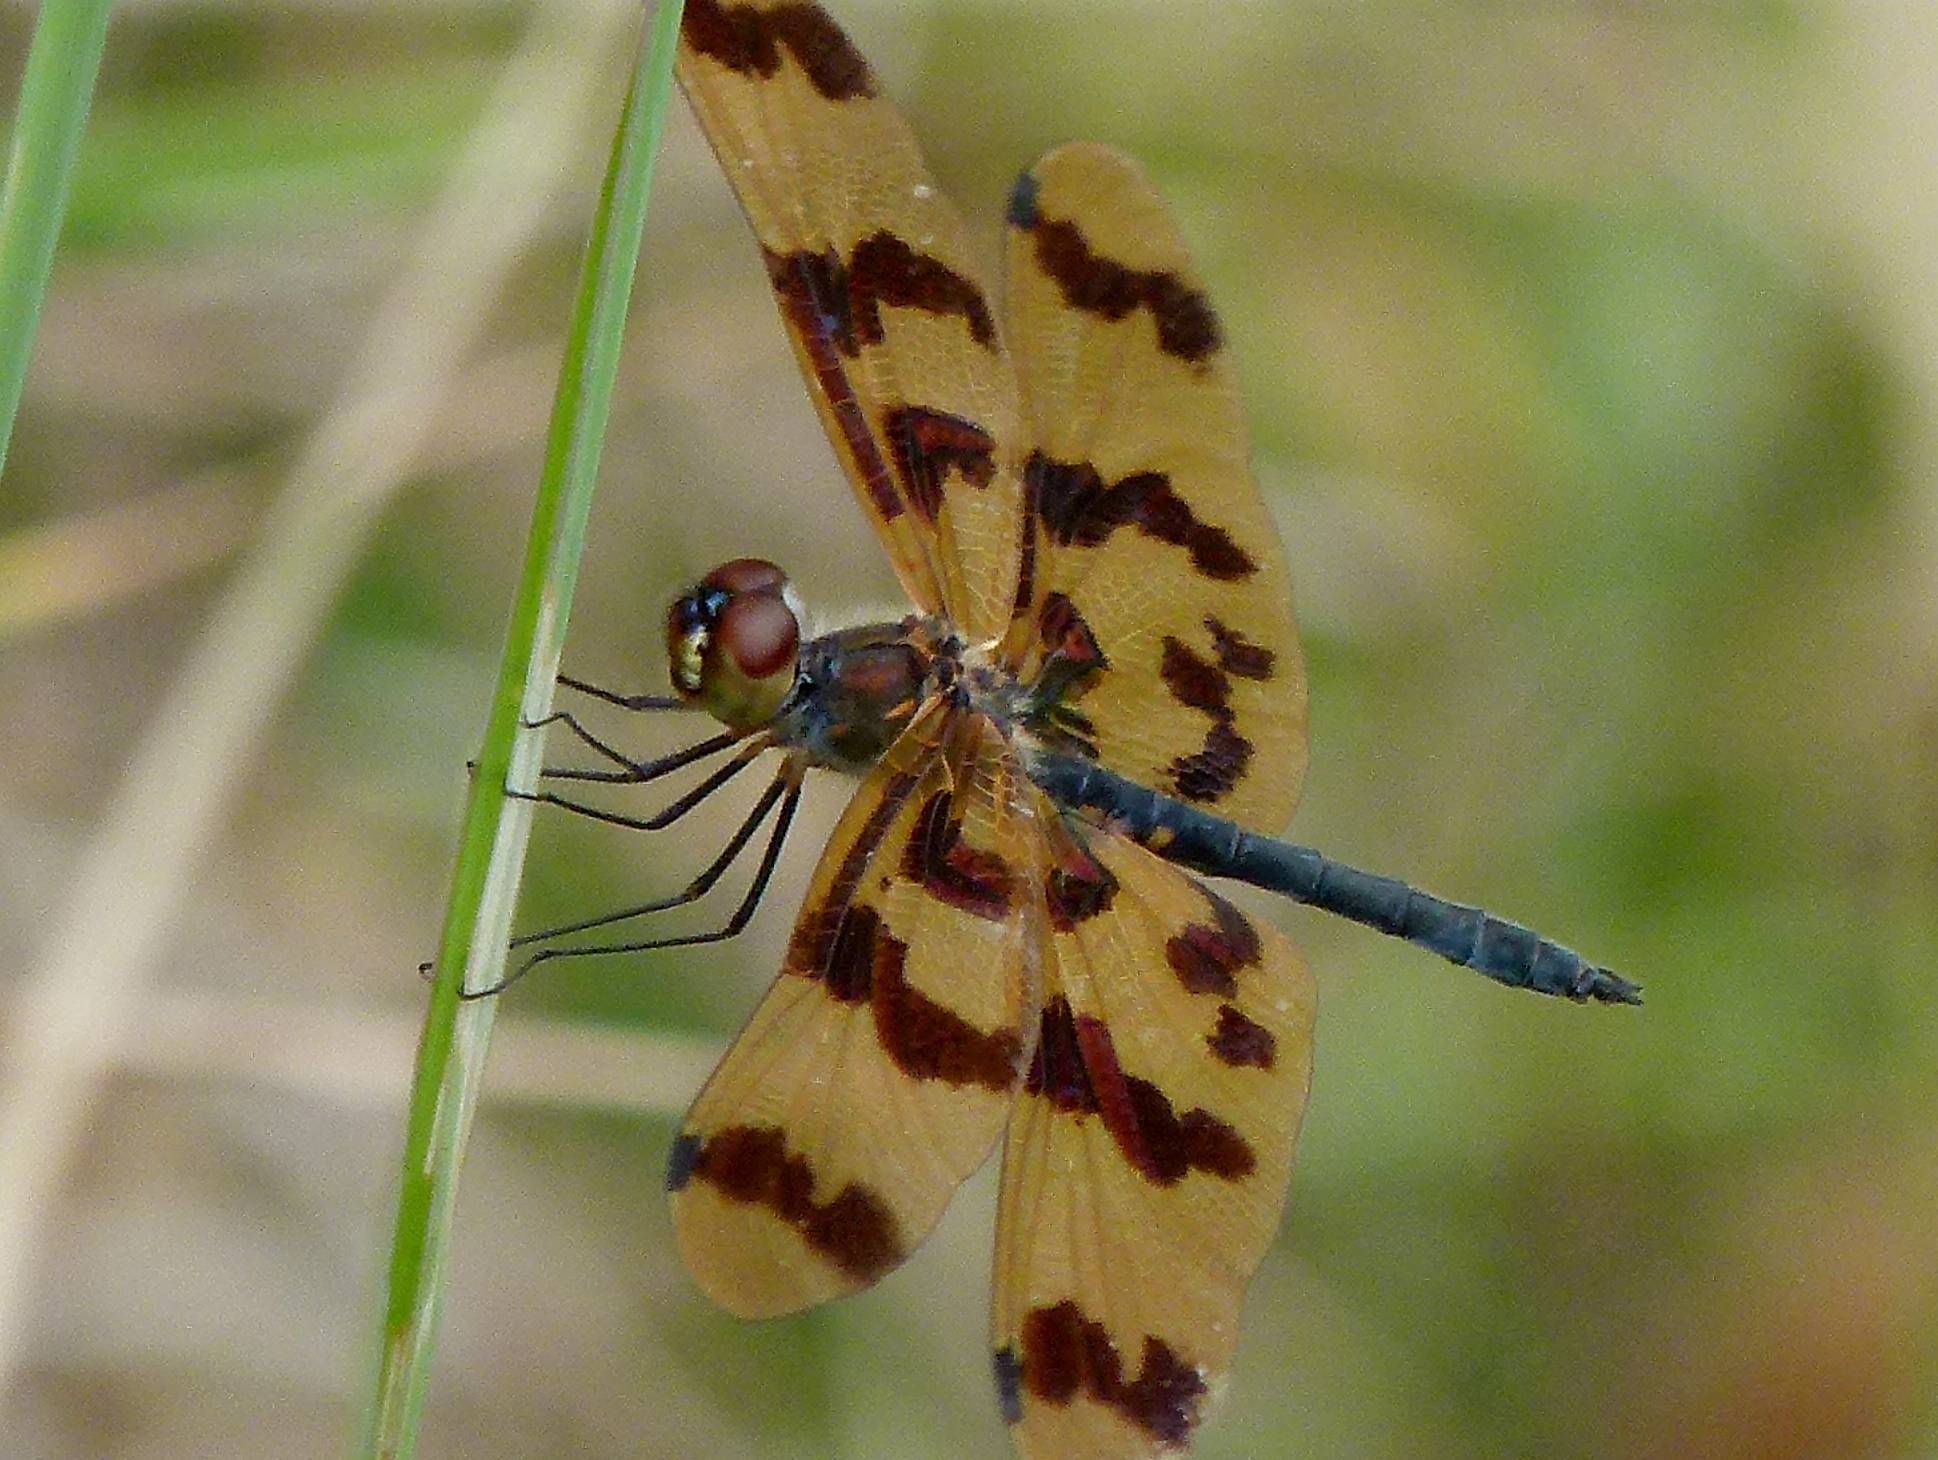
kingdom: Animalia
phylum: Arthropoda
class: Insecta
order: Odonata
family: Libellulidae
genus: Rhyothemis
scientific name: Rhyothemis graphiptera
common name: Graphic flutterer
